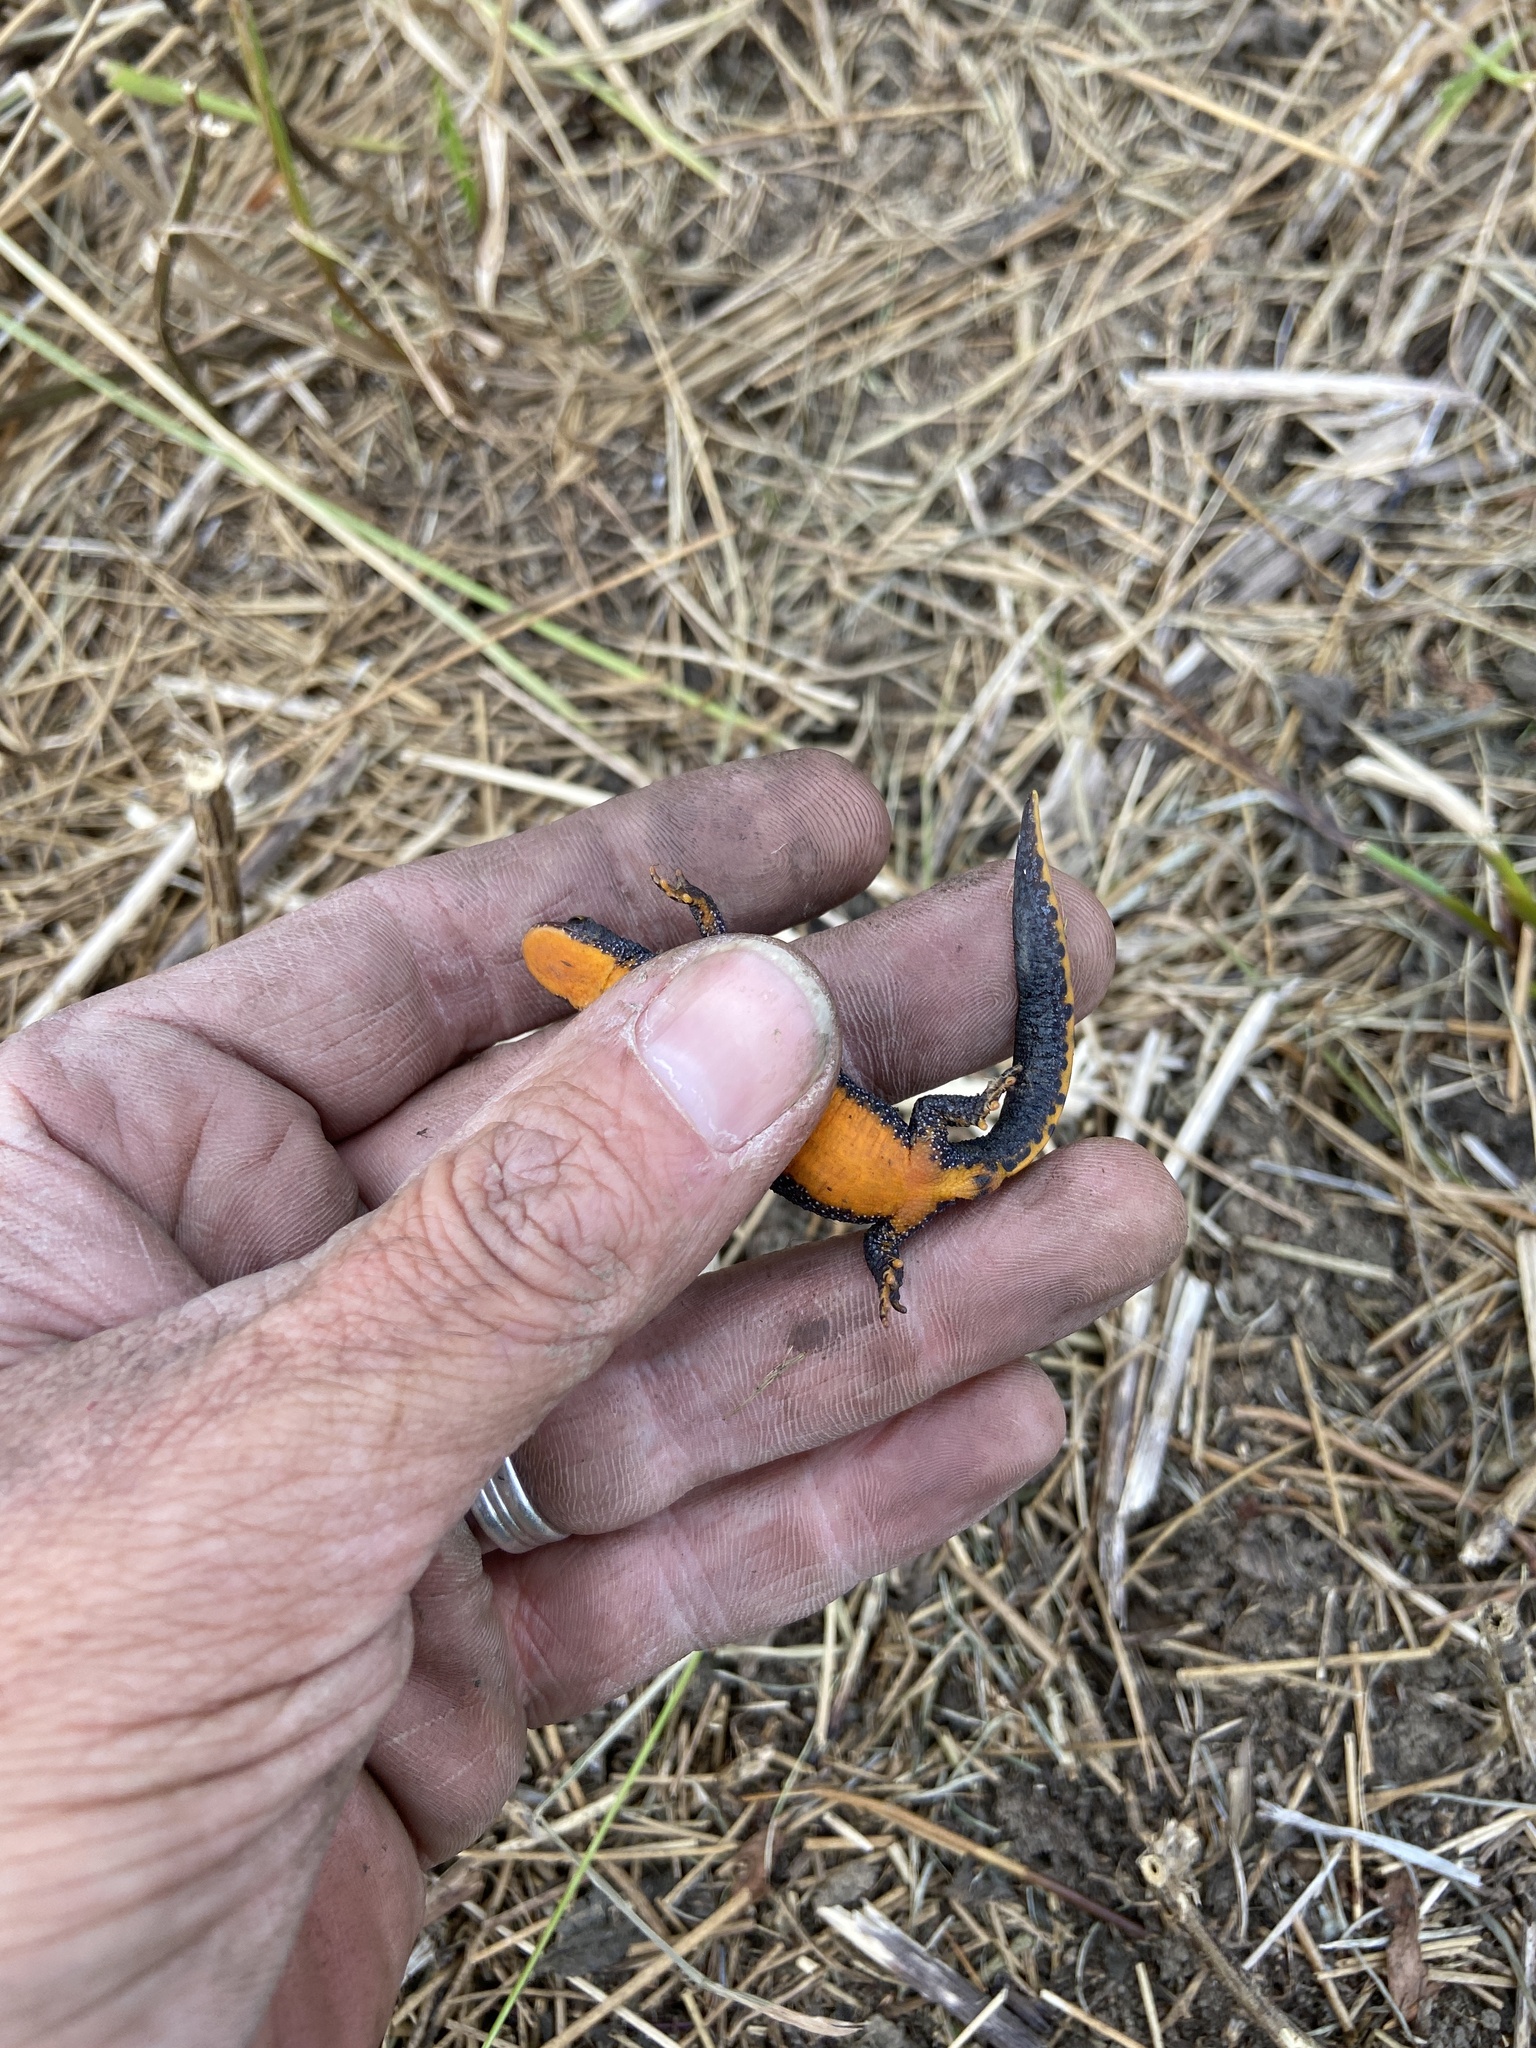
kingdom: Animalia
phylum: Chordata
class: Amphibia
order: Caudata
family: Salamandridae
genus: Ichthyosaura
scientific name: Ichthyosaura alpestris
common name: Alpine newt
